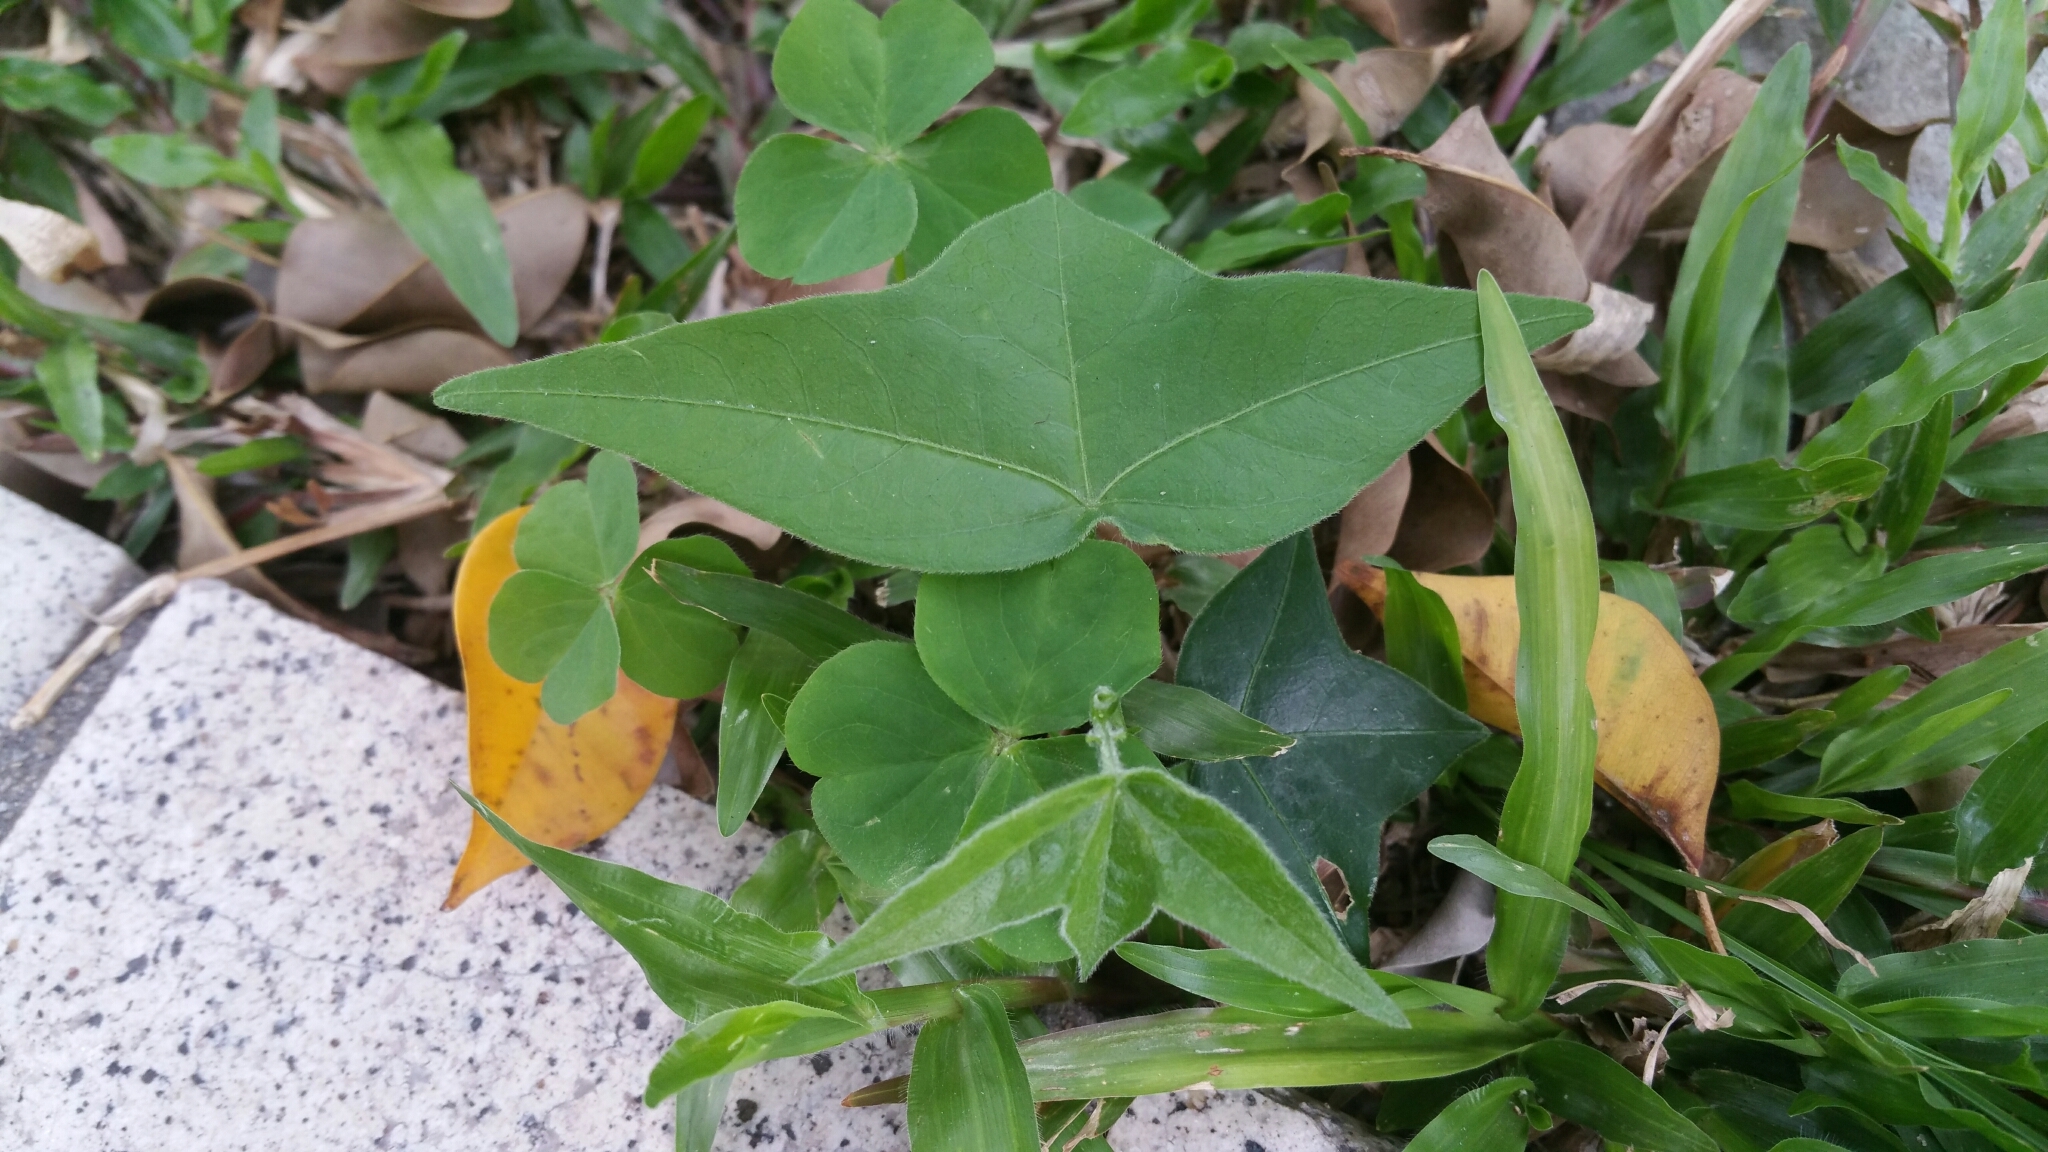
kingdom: Plantae
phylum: Tracheophyta
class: Magnoliopsida
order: Malpighiales
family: Passifloraceae
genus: Passiflora
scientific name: Passiflora suberosa
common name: Wild passionfruit
